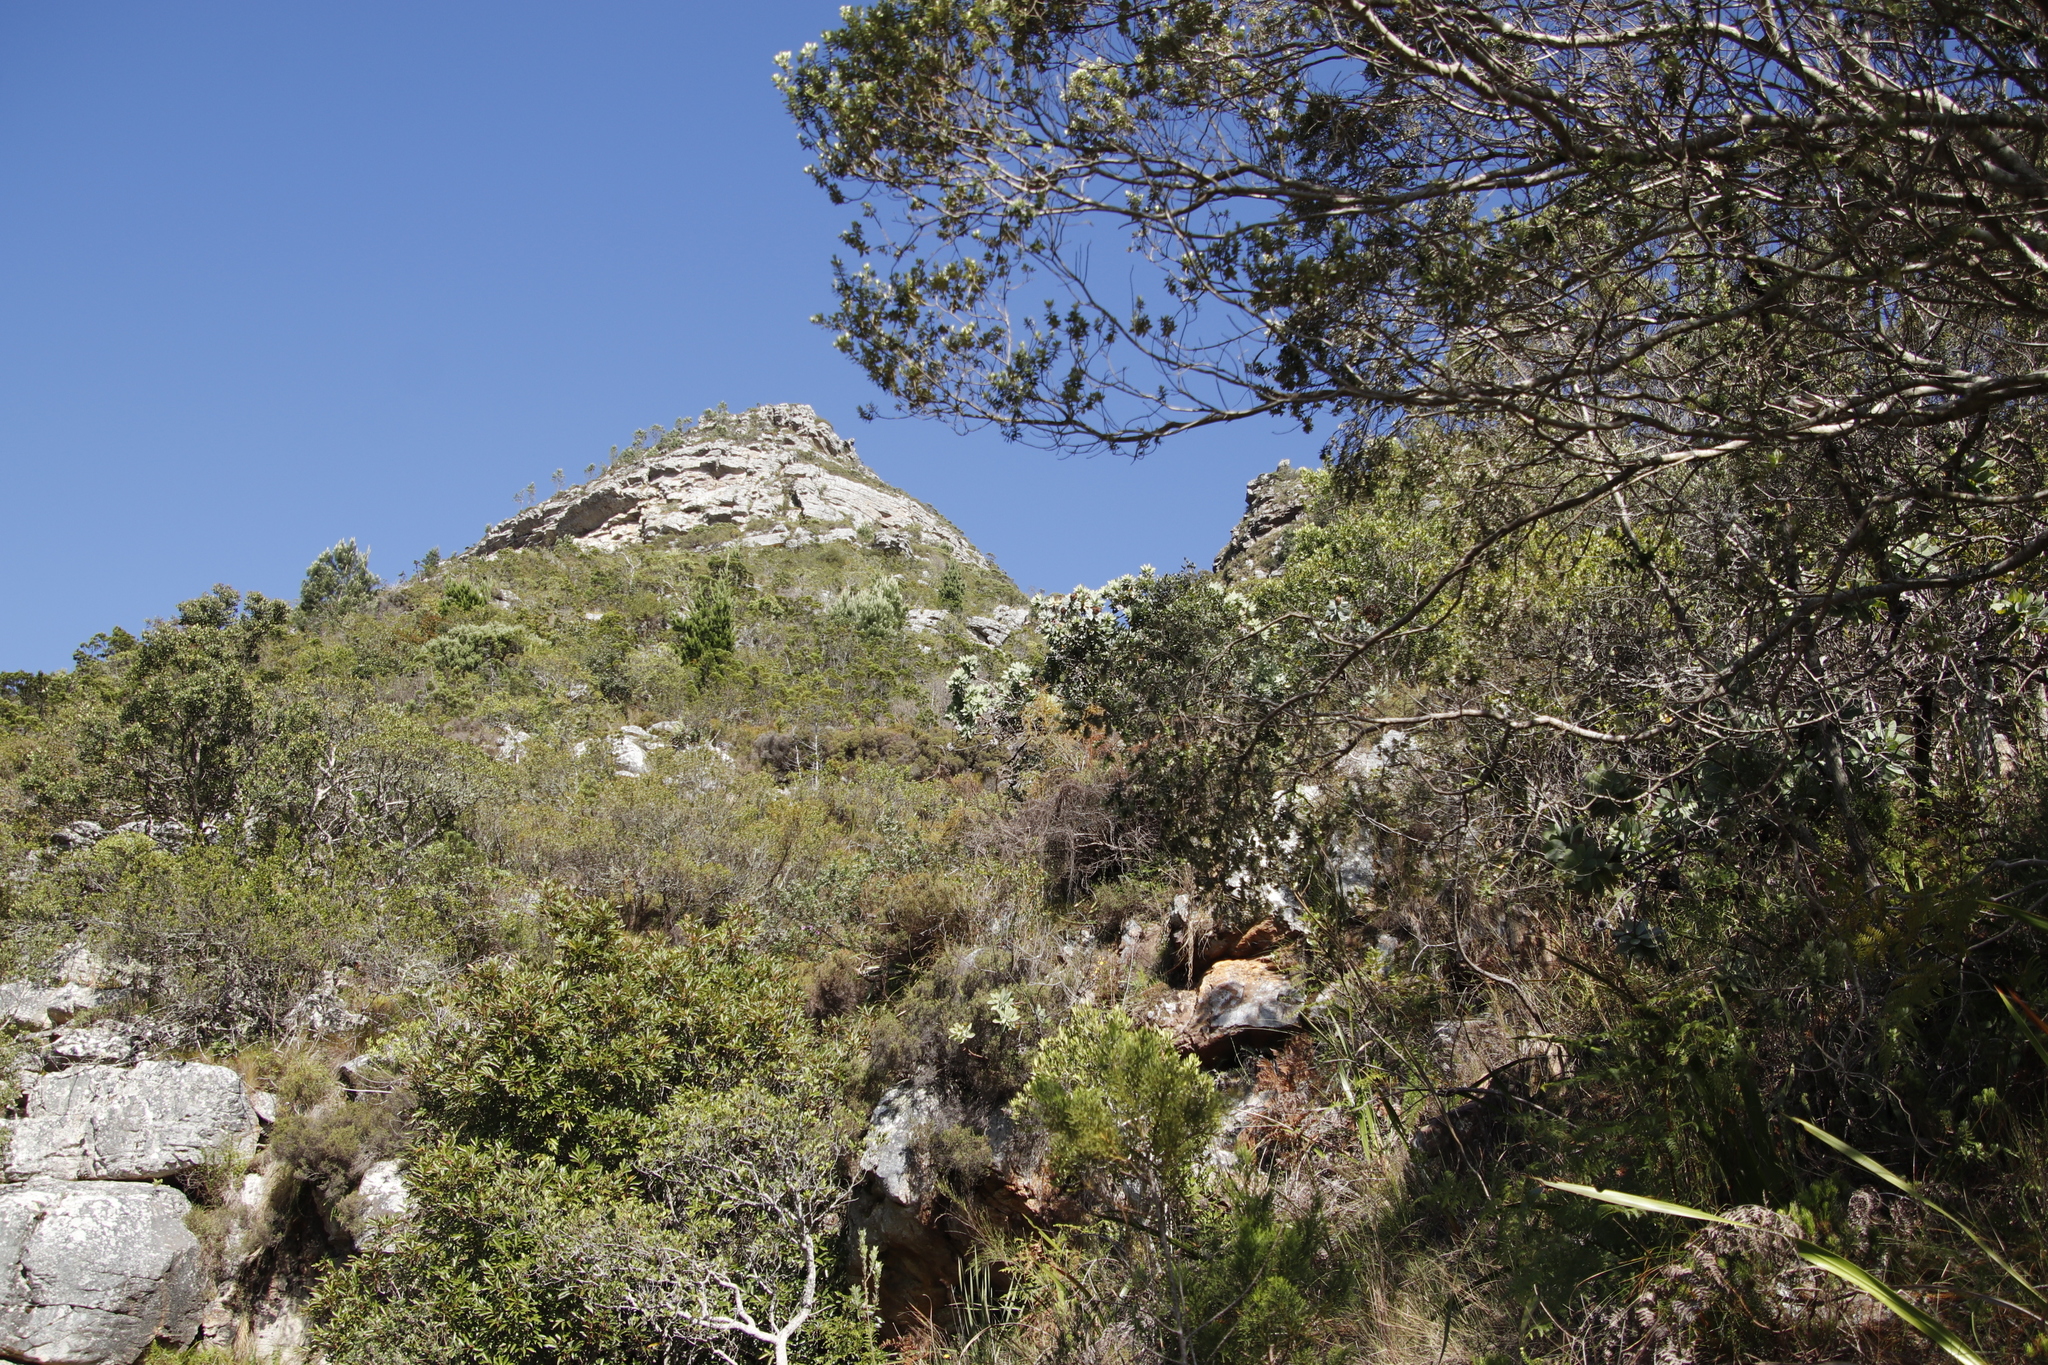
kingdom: Plantae
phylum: Tracheophyta
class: Magnoliopsida
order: Proteales
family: Proteaceae
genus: Protea
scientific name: Protea nitida
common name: Tree protea
